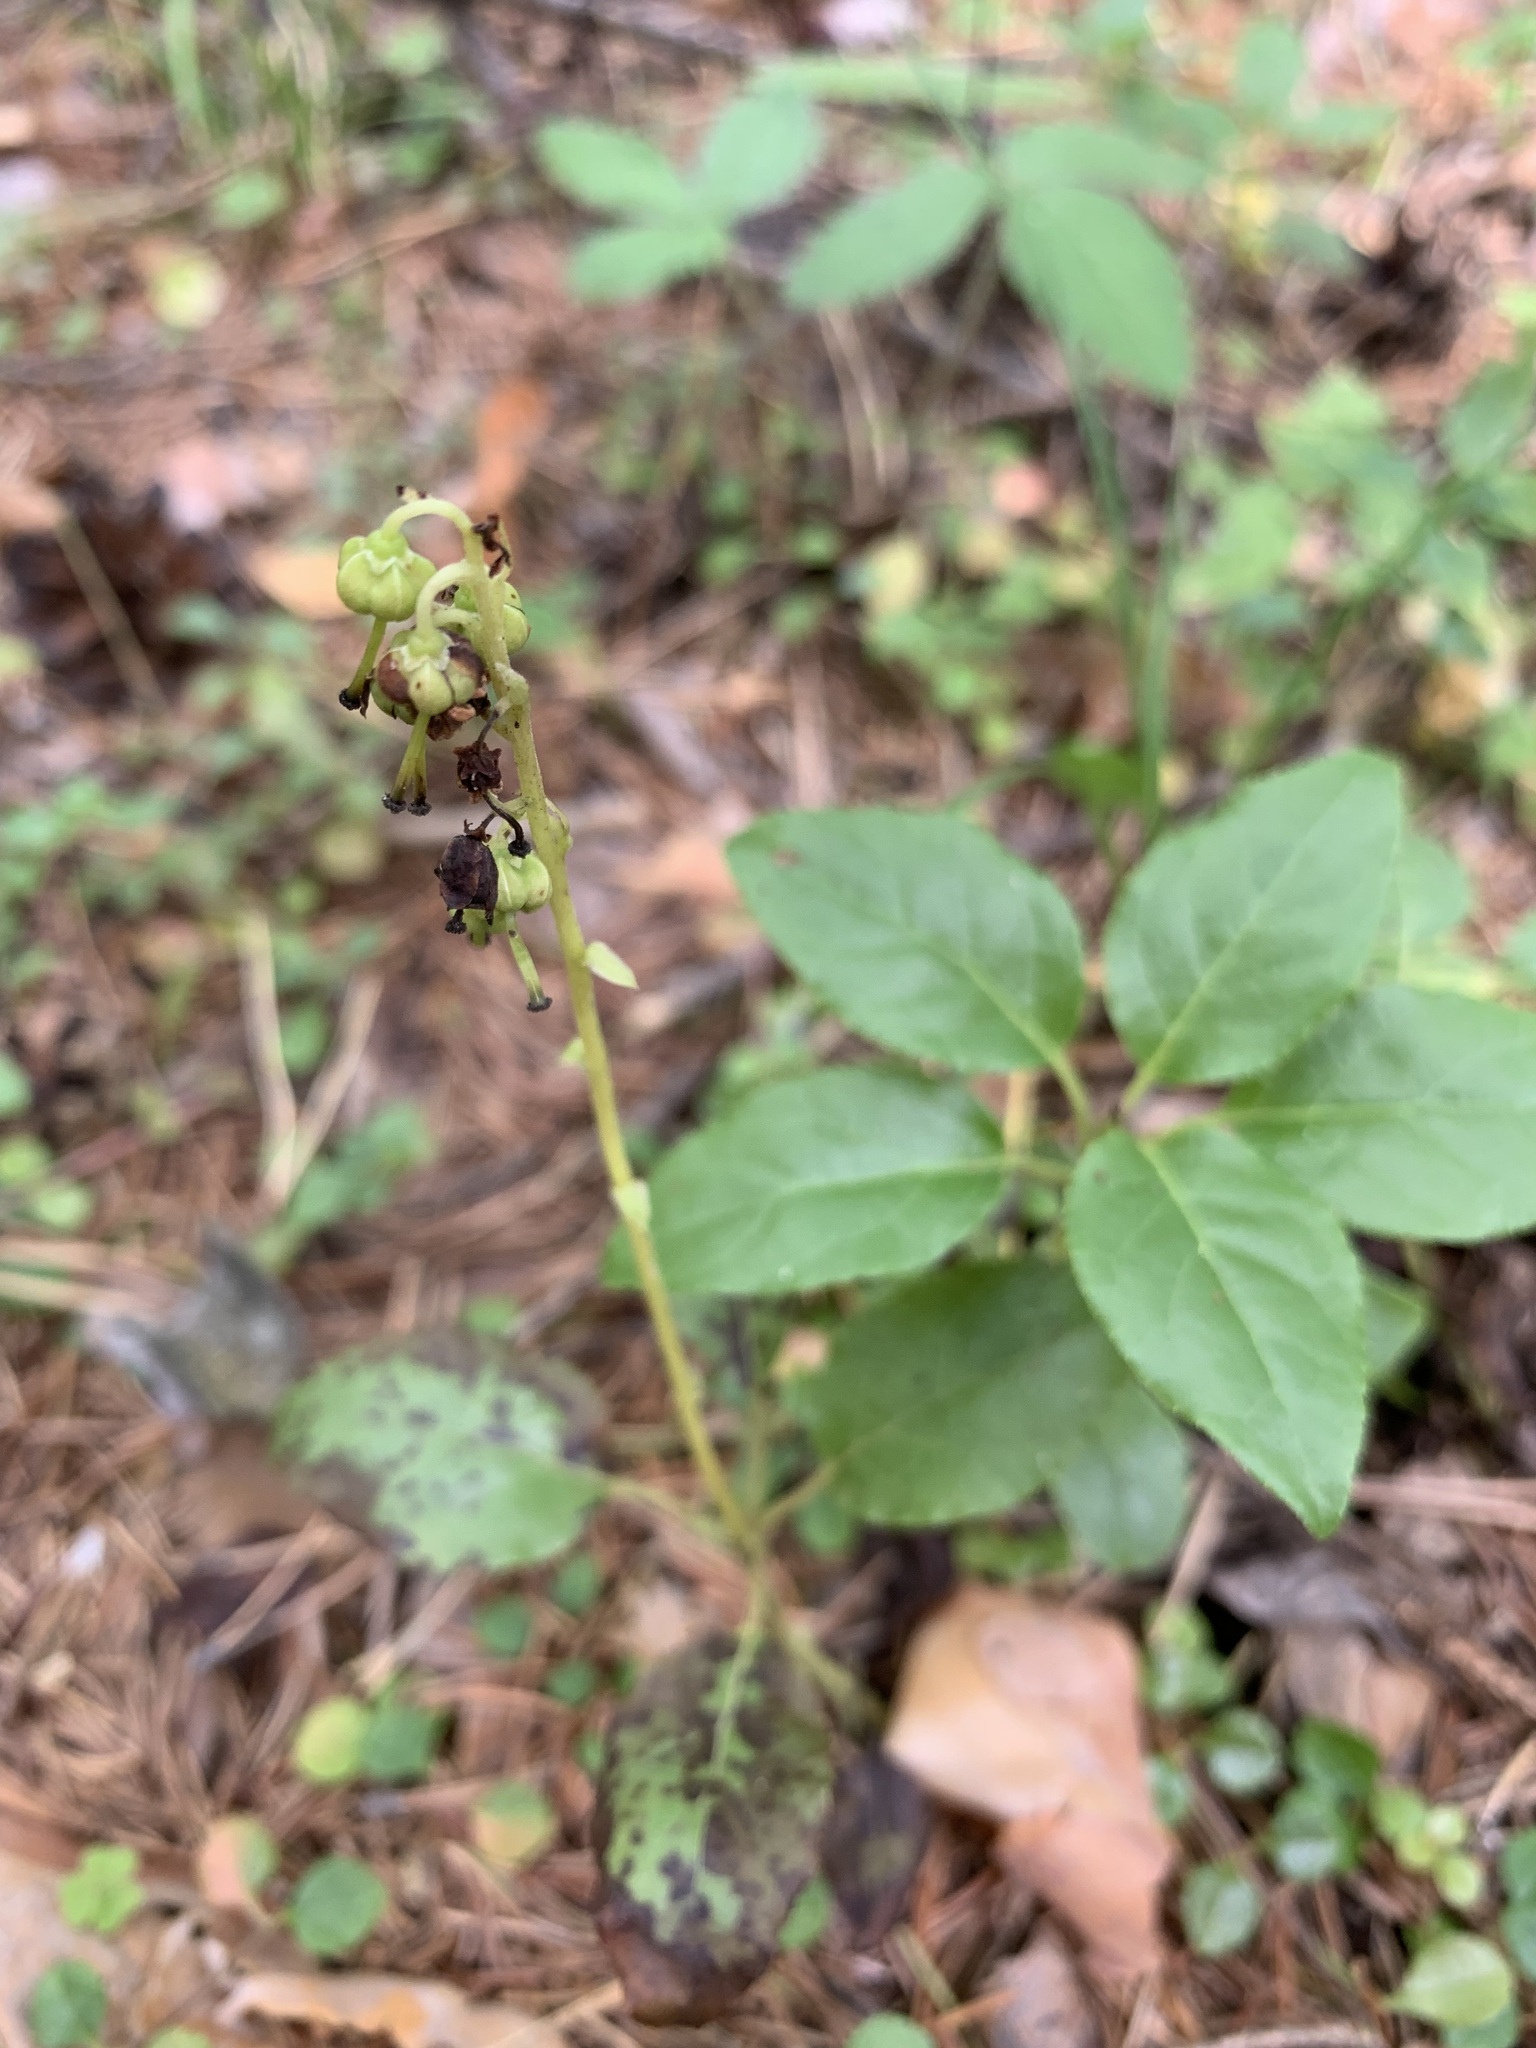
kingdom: Plantae
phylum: Tracheophyta
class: Magnoliopsida
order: Ericales
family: Ericaceae
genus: Orthilia
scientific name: Orthilia secunda
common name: One-sided orthilia
